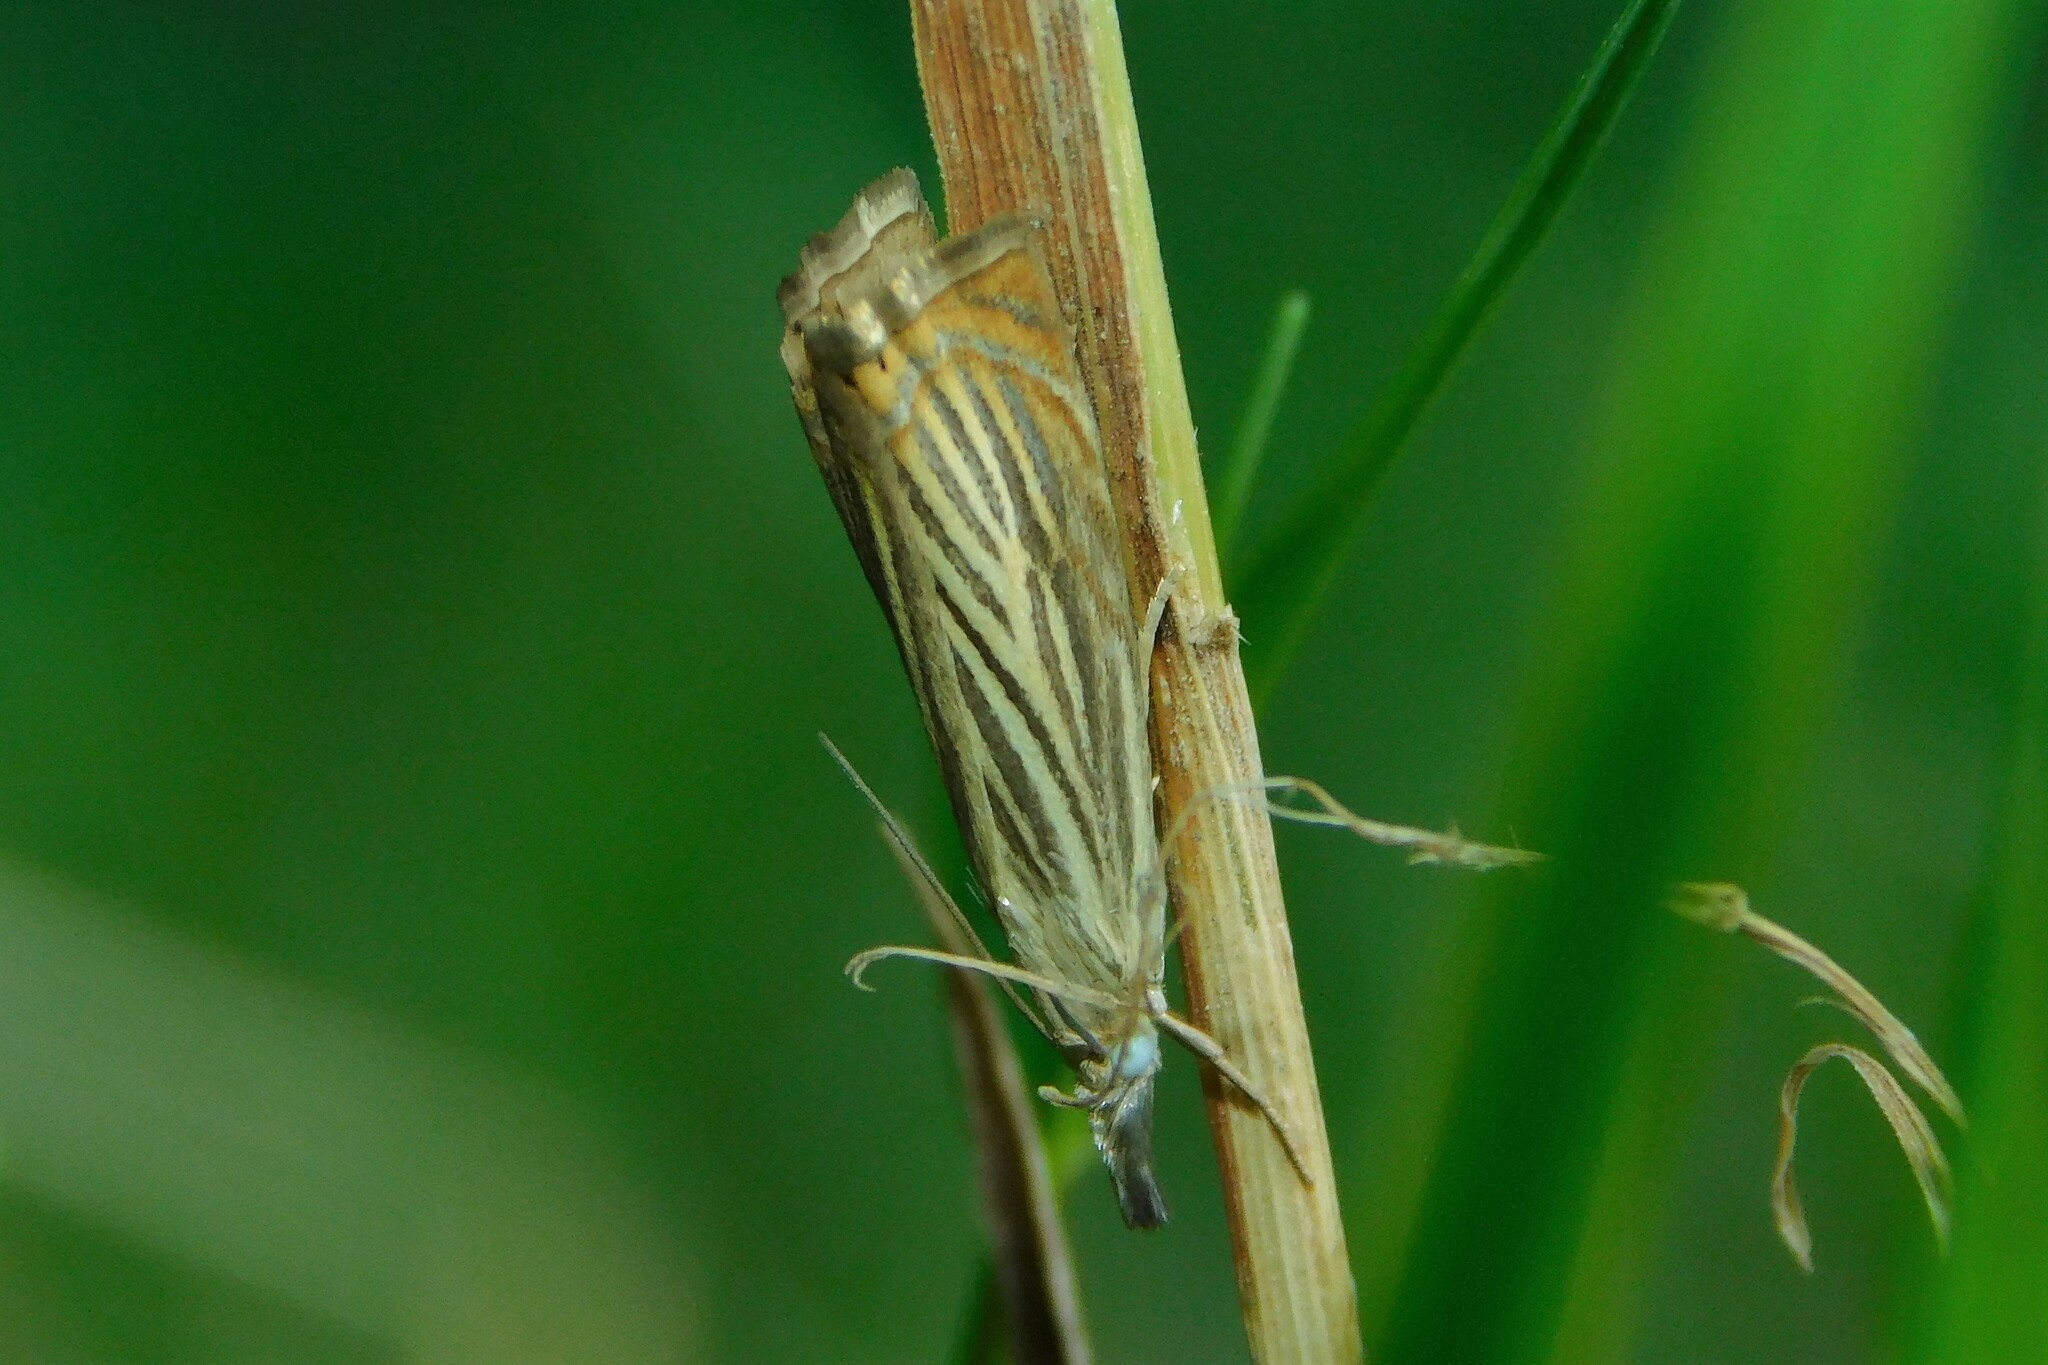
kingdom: Animalia
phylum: Arthropoda
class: Insecta
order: Lepidoptera
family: Crambidae
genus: Chrysoteuchia
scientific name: Chrysoteuchia culmella
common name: Garden grass-veneer
